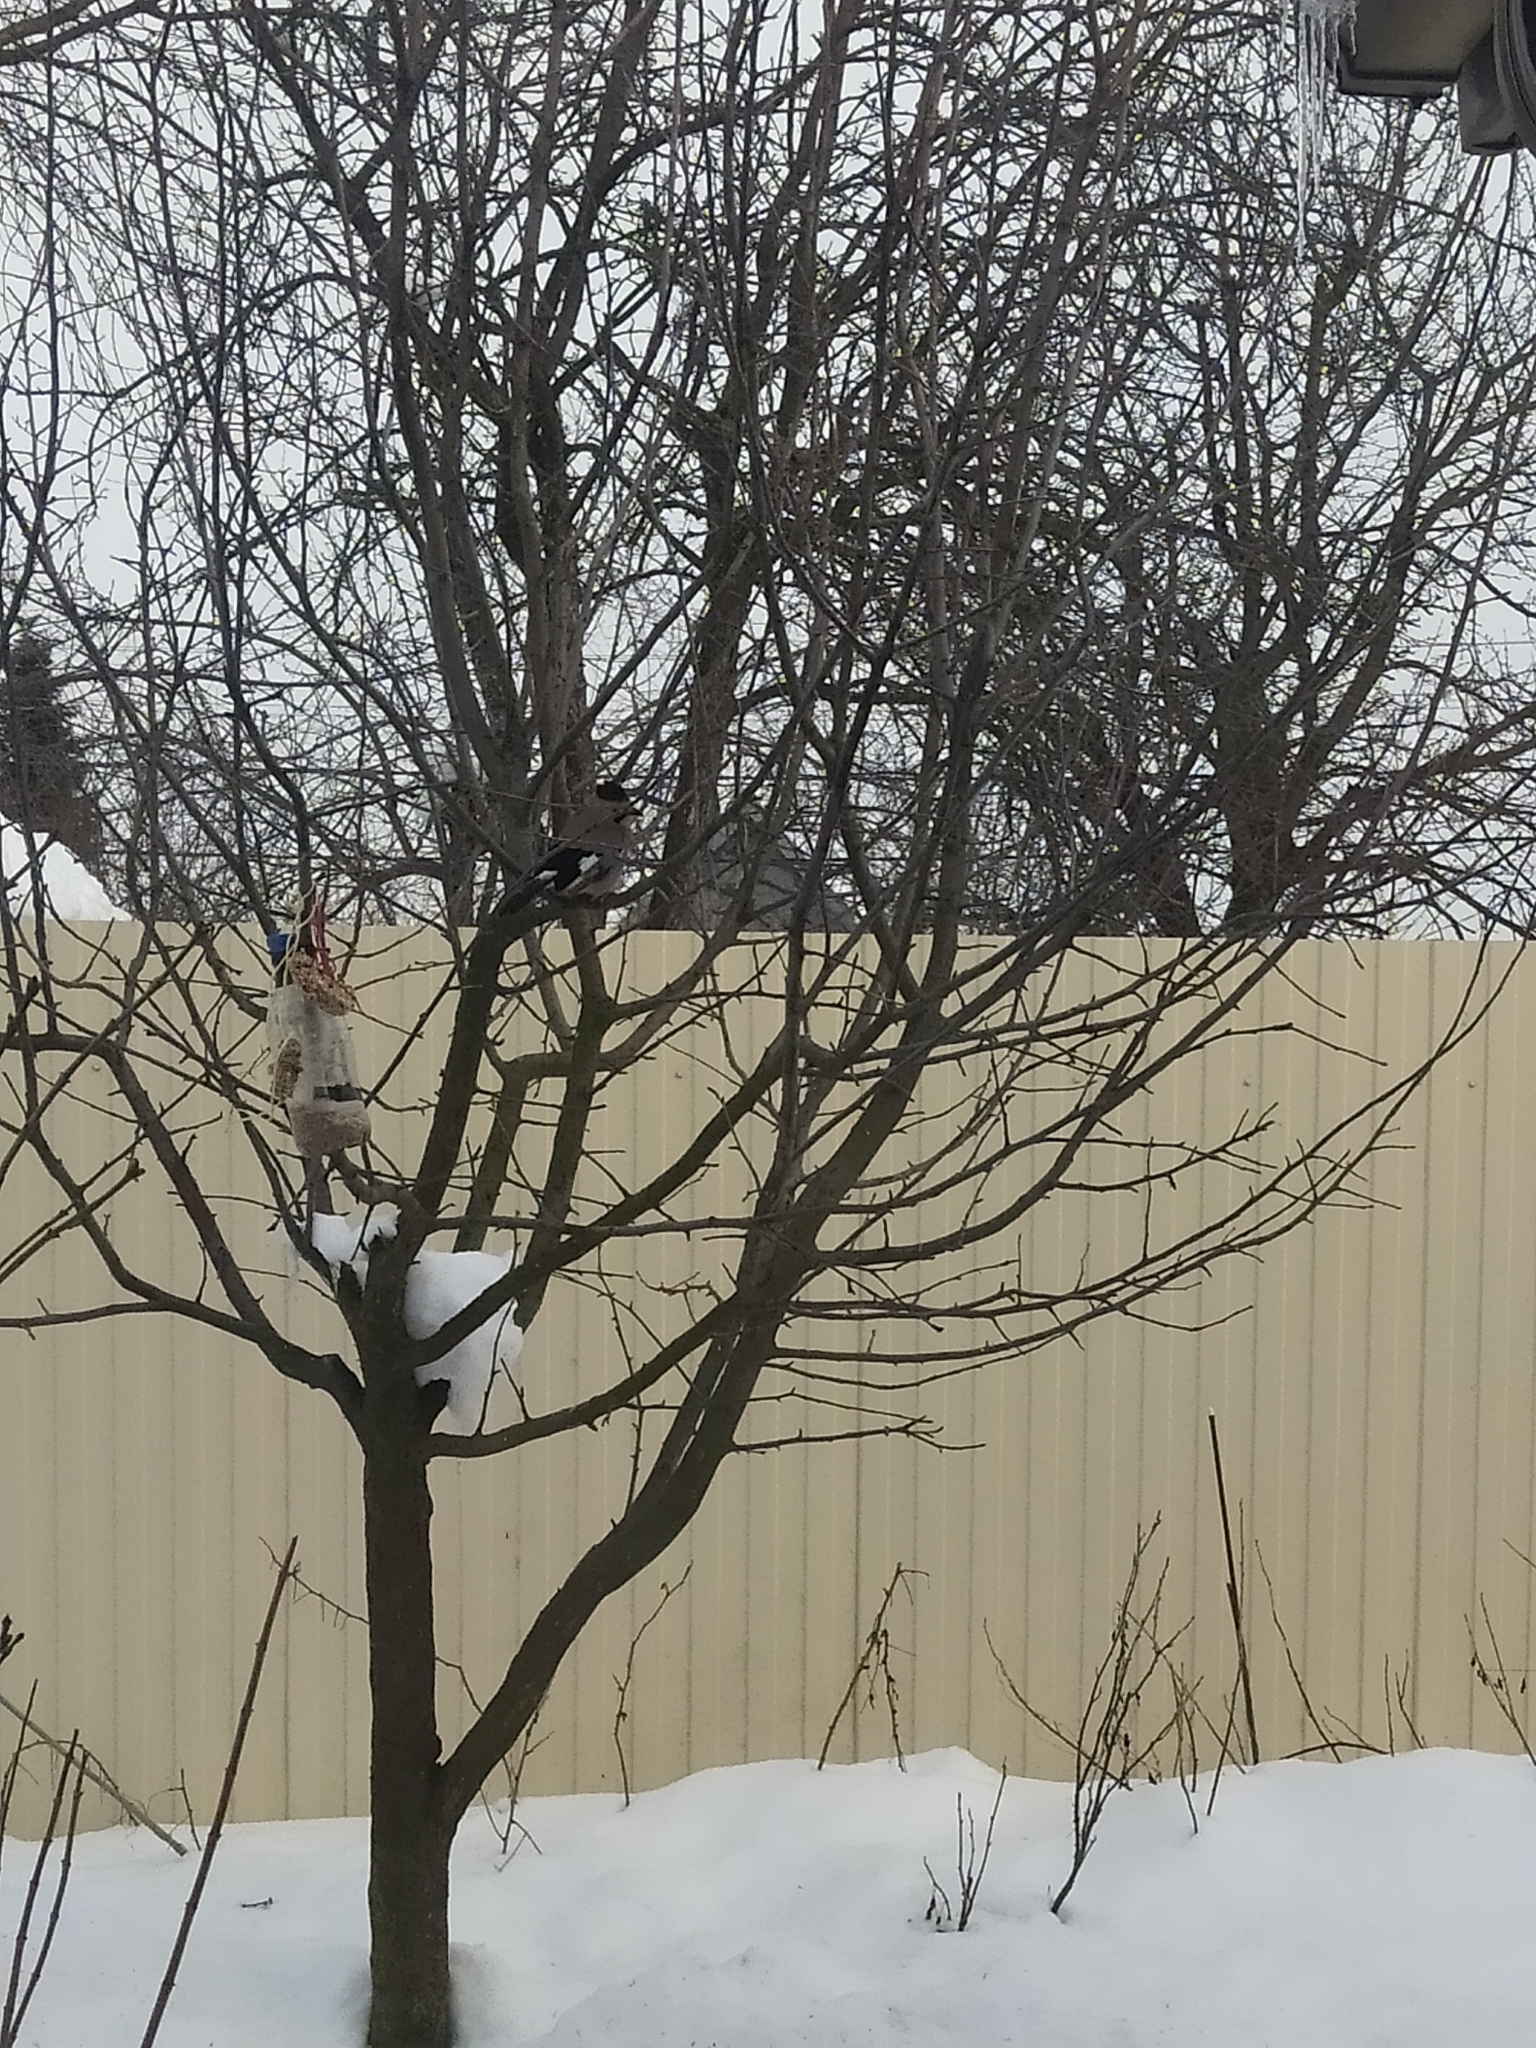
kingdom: Animalia
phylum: Chordata
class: Aves
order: Passeriformes
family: Corvidae
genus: Garrulus
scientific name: Garrulus glandarius
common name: Eurasian jay
